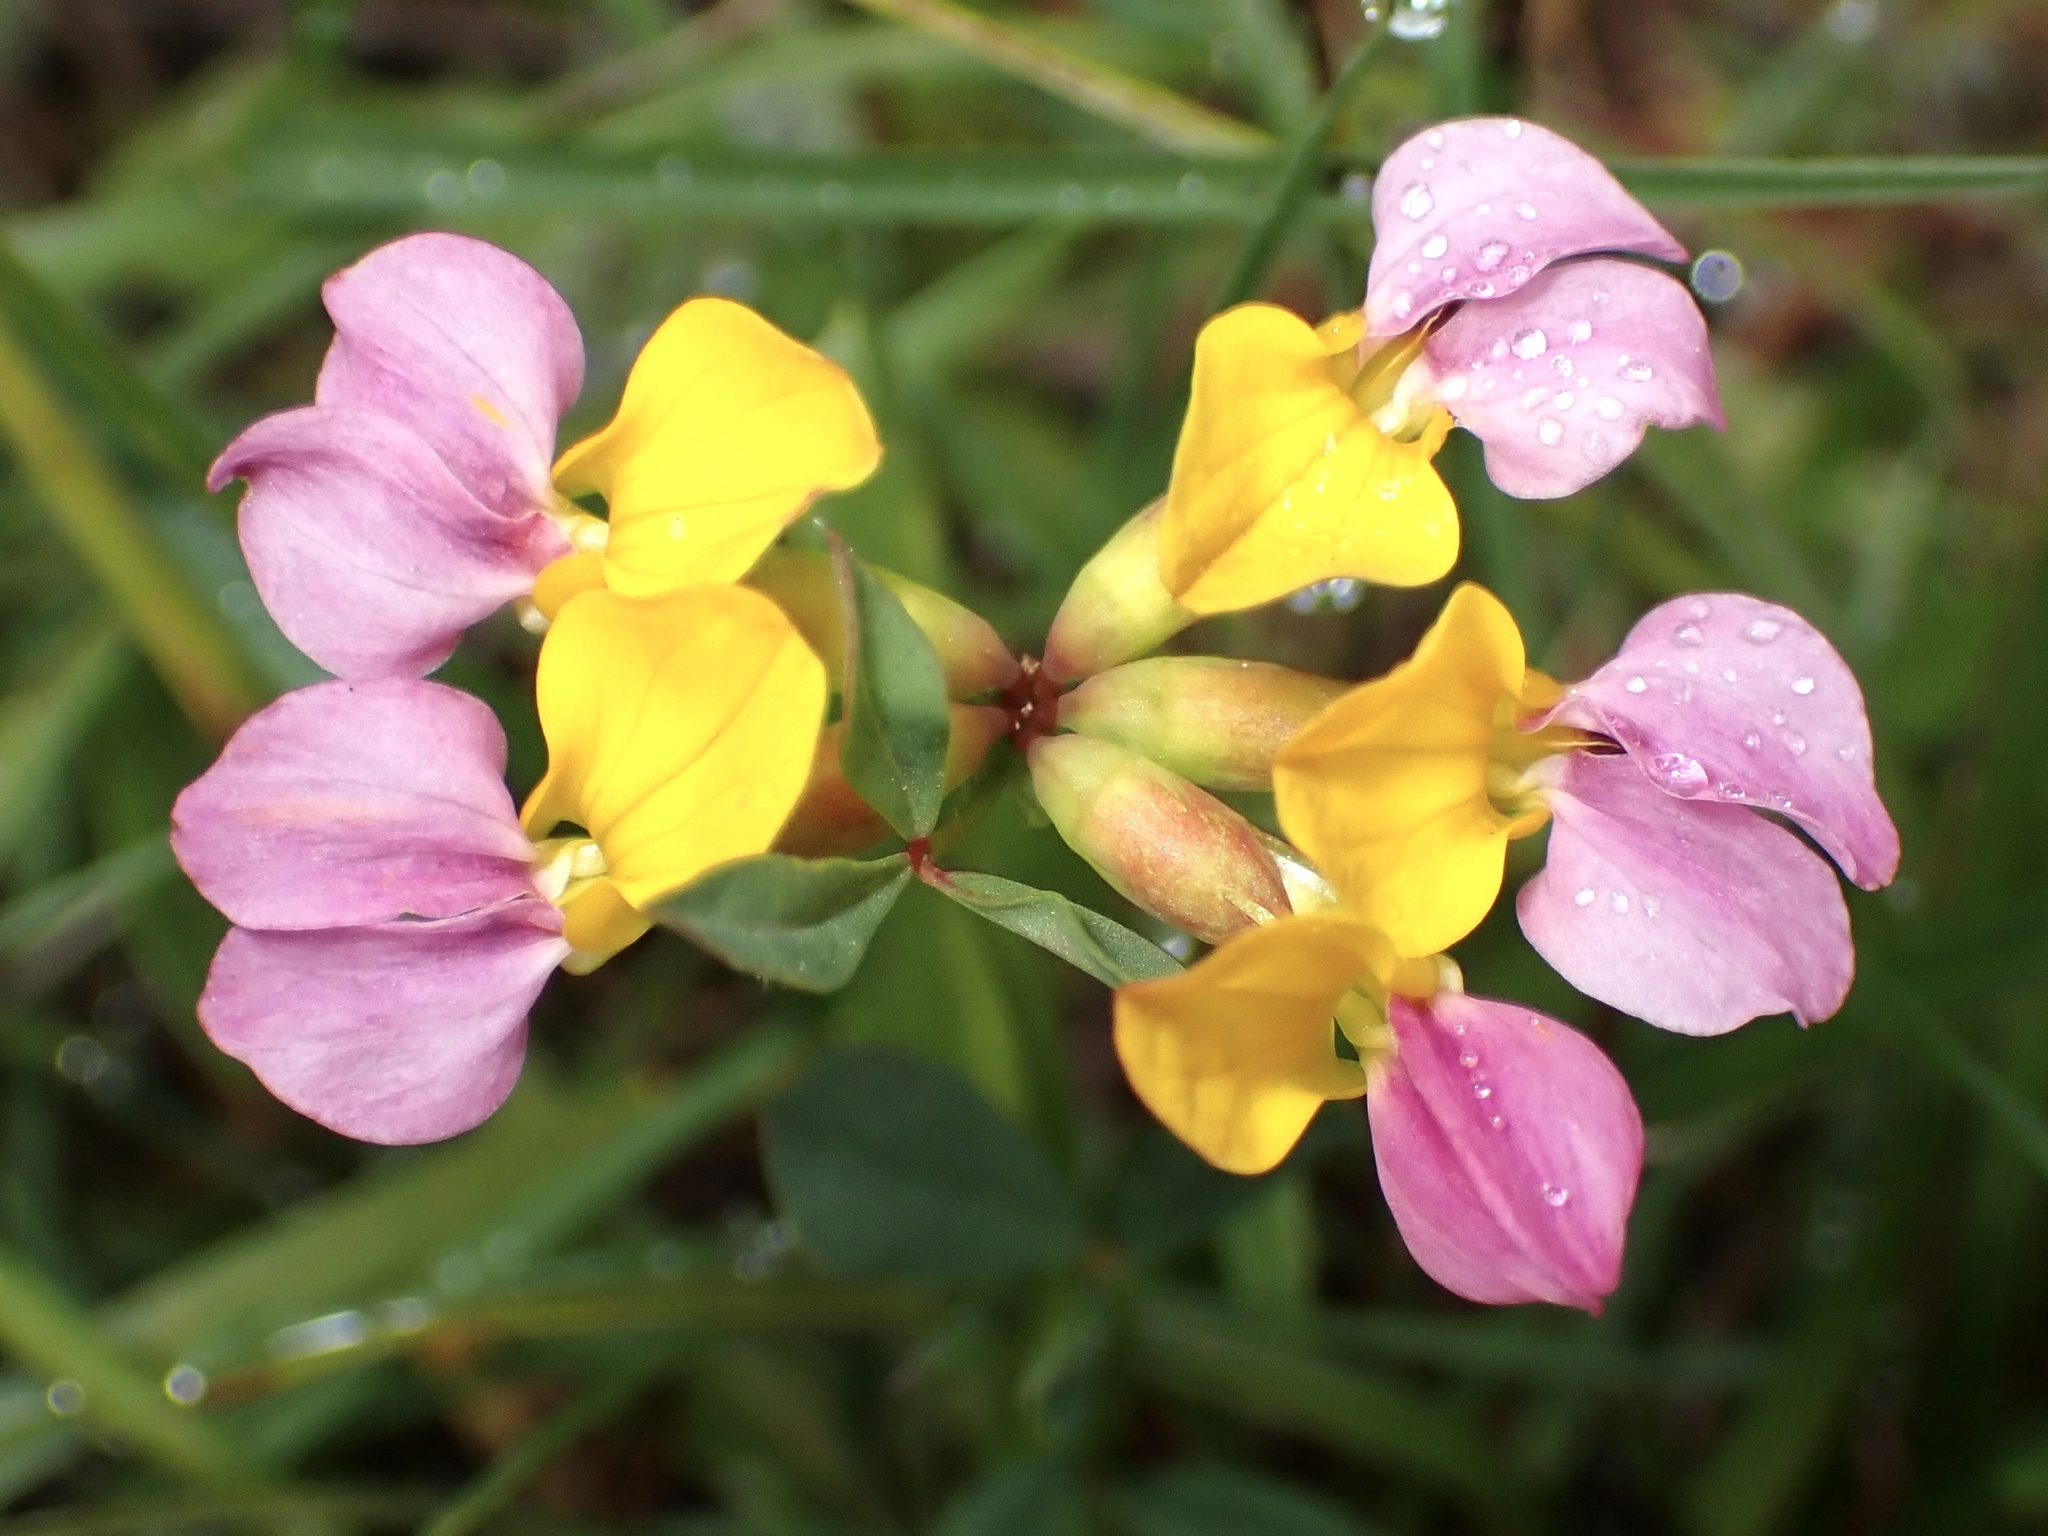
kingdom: Plantae
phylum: Tracheophyta
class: Magnoliopsida
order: Fabales
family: Fabaceae
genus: Hosackia
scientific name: Hosackia gracilis
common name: Seaside bird's-foot lotus
